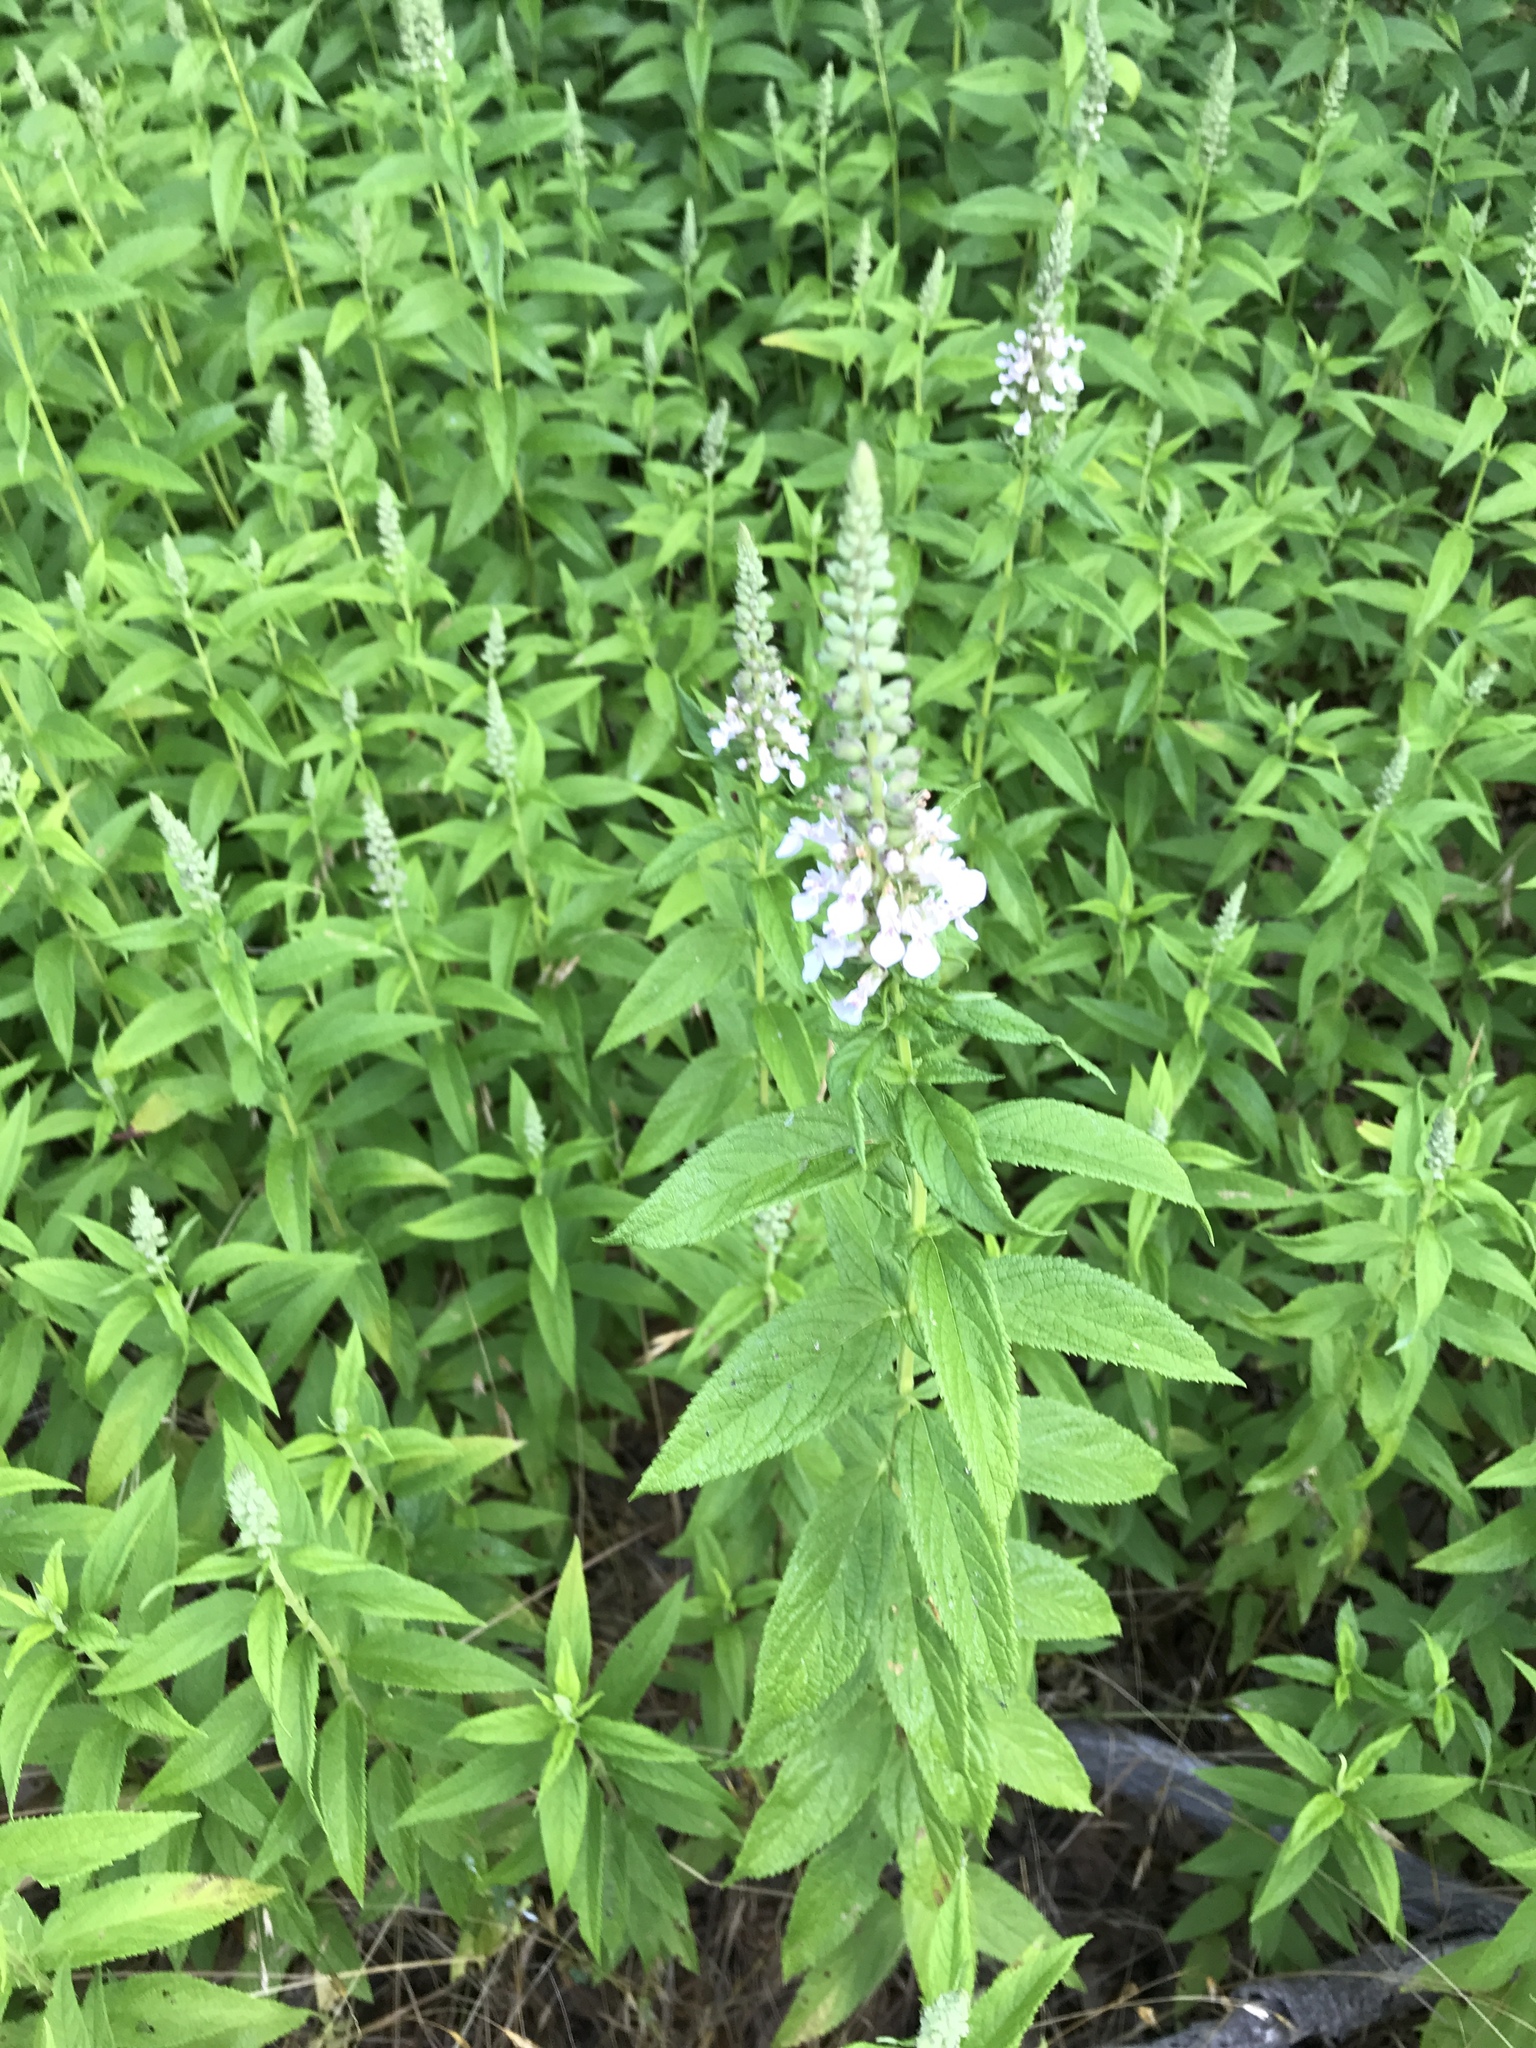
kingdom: Plantae
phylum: Tracheophyta
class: Magnoliopsida
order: Lamiales
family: Lamiaceae
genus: Teucrium
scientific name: Teucrium canadense
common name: American germander
